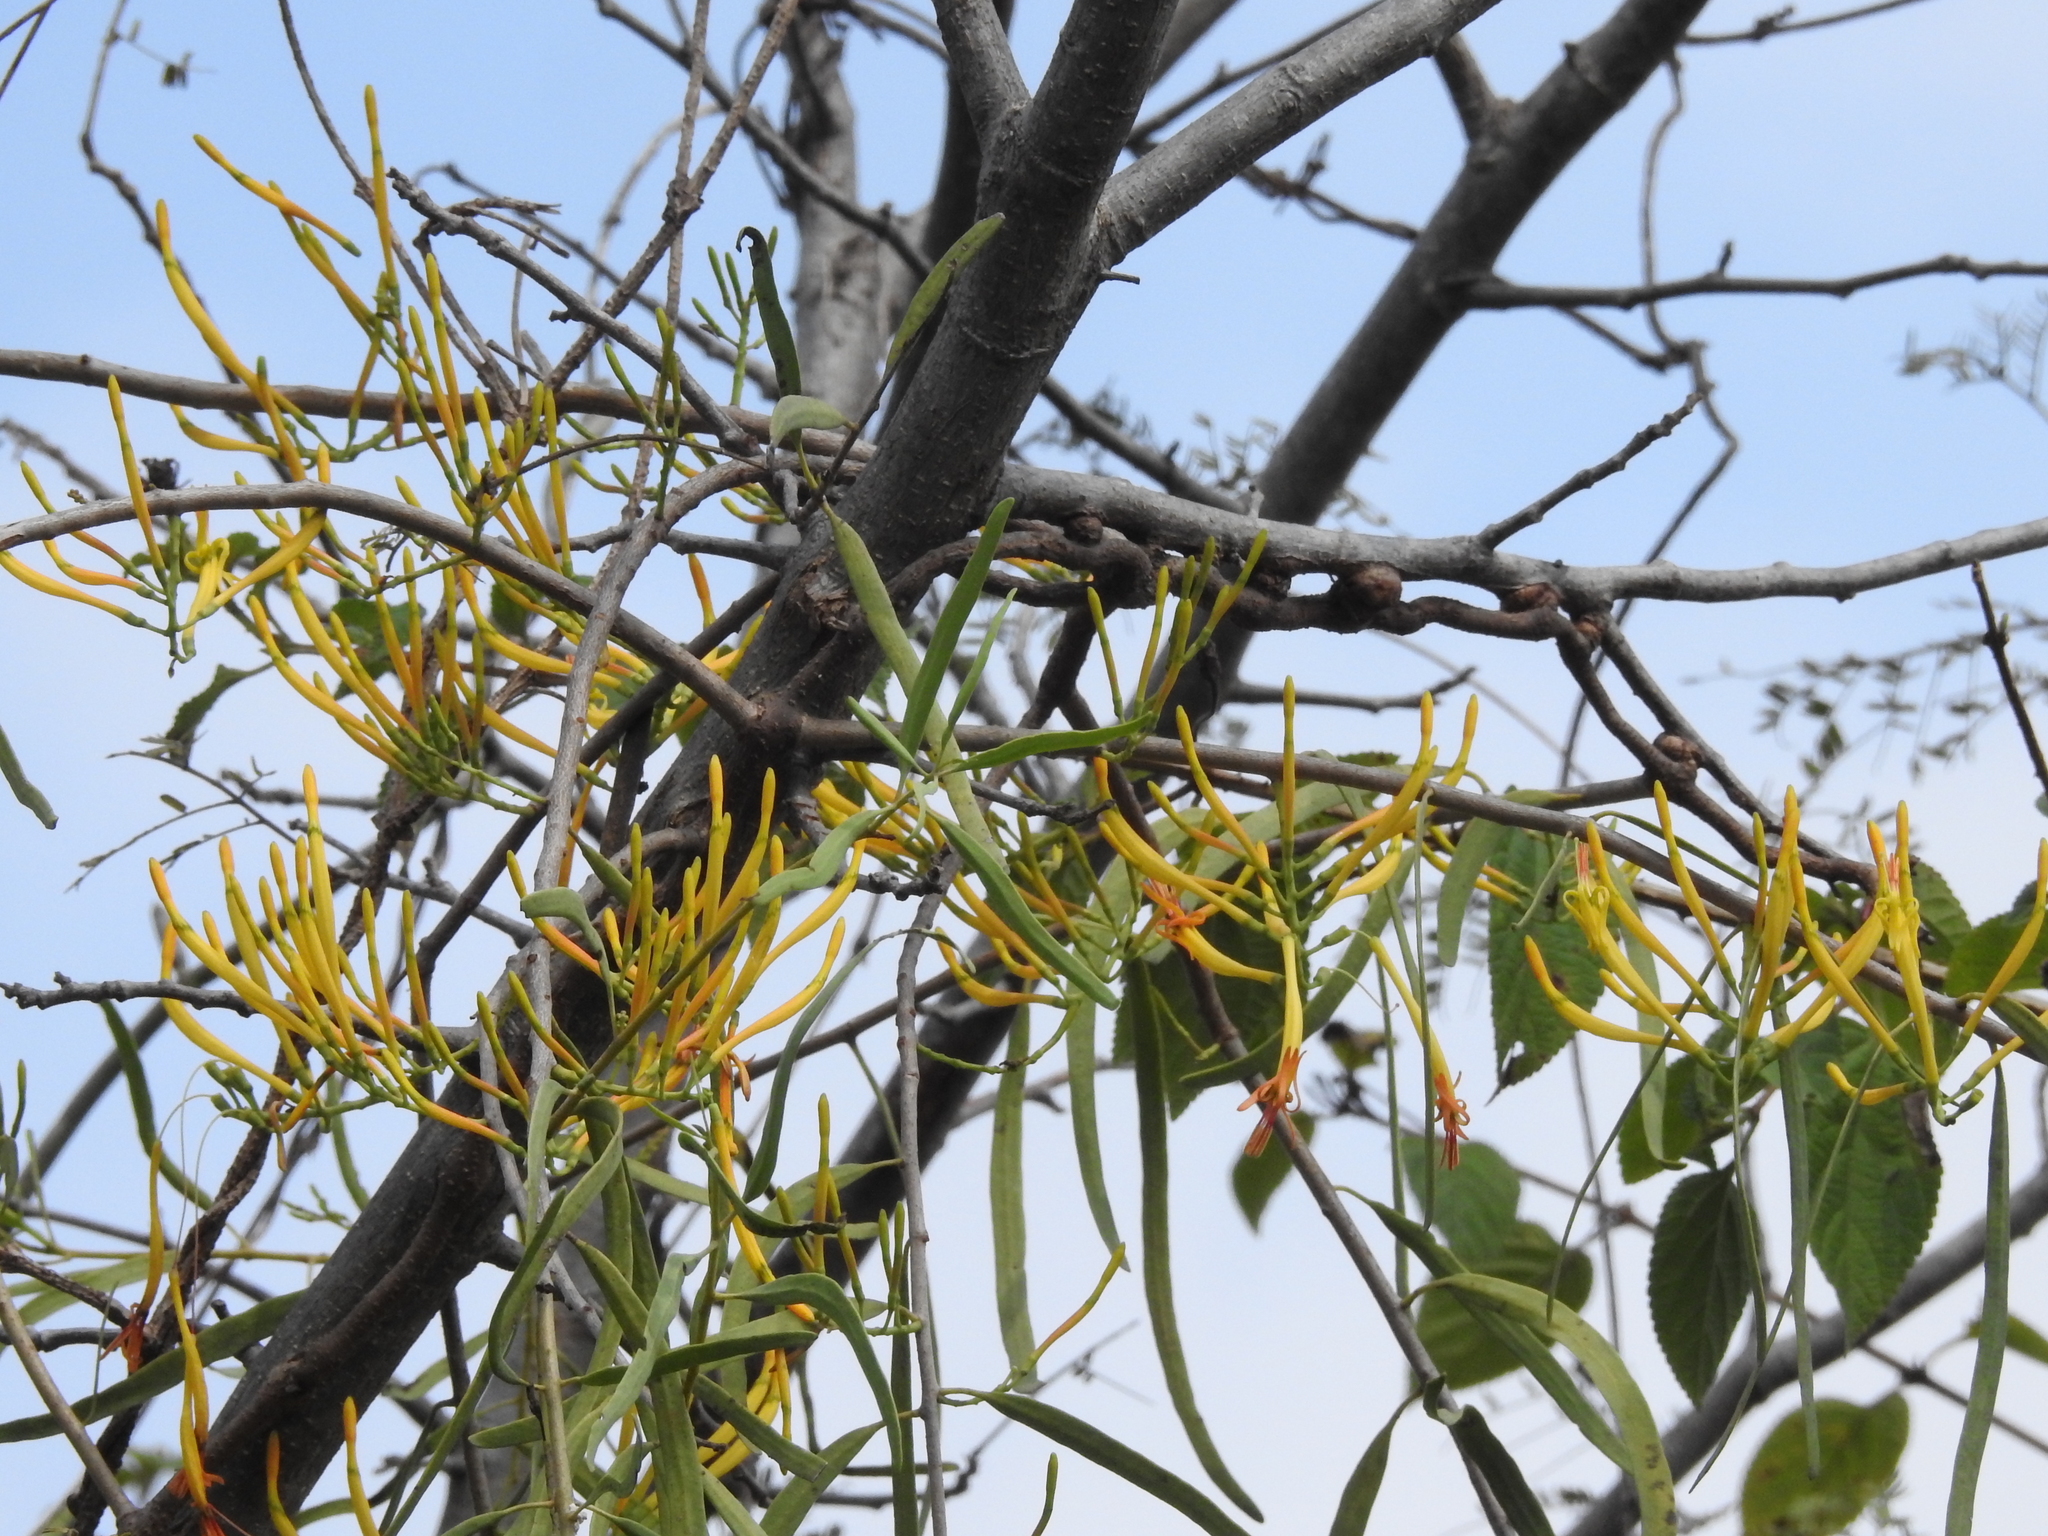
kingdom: Plantae
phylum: Tracheophyta
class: Magnoliopsida
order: Santalales
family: Loranthaceae
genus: Dendrophthoe
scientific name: Dendrophthoe falcata
